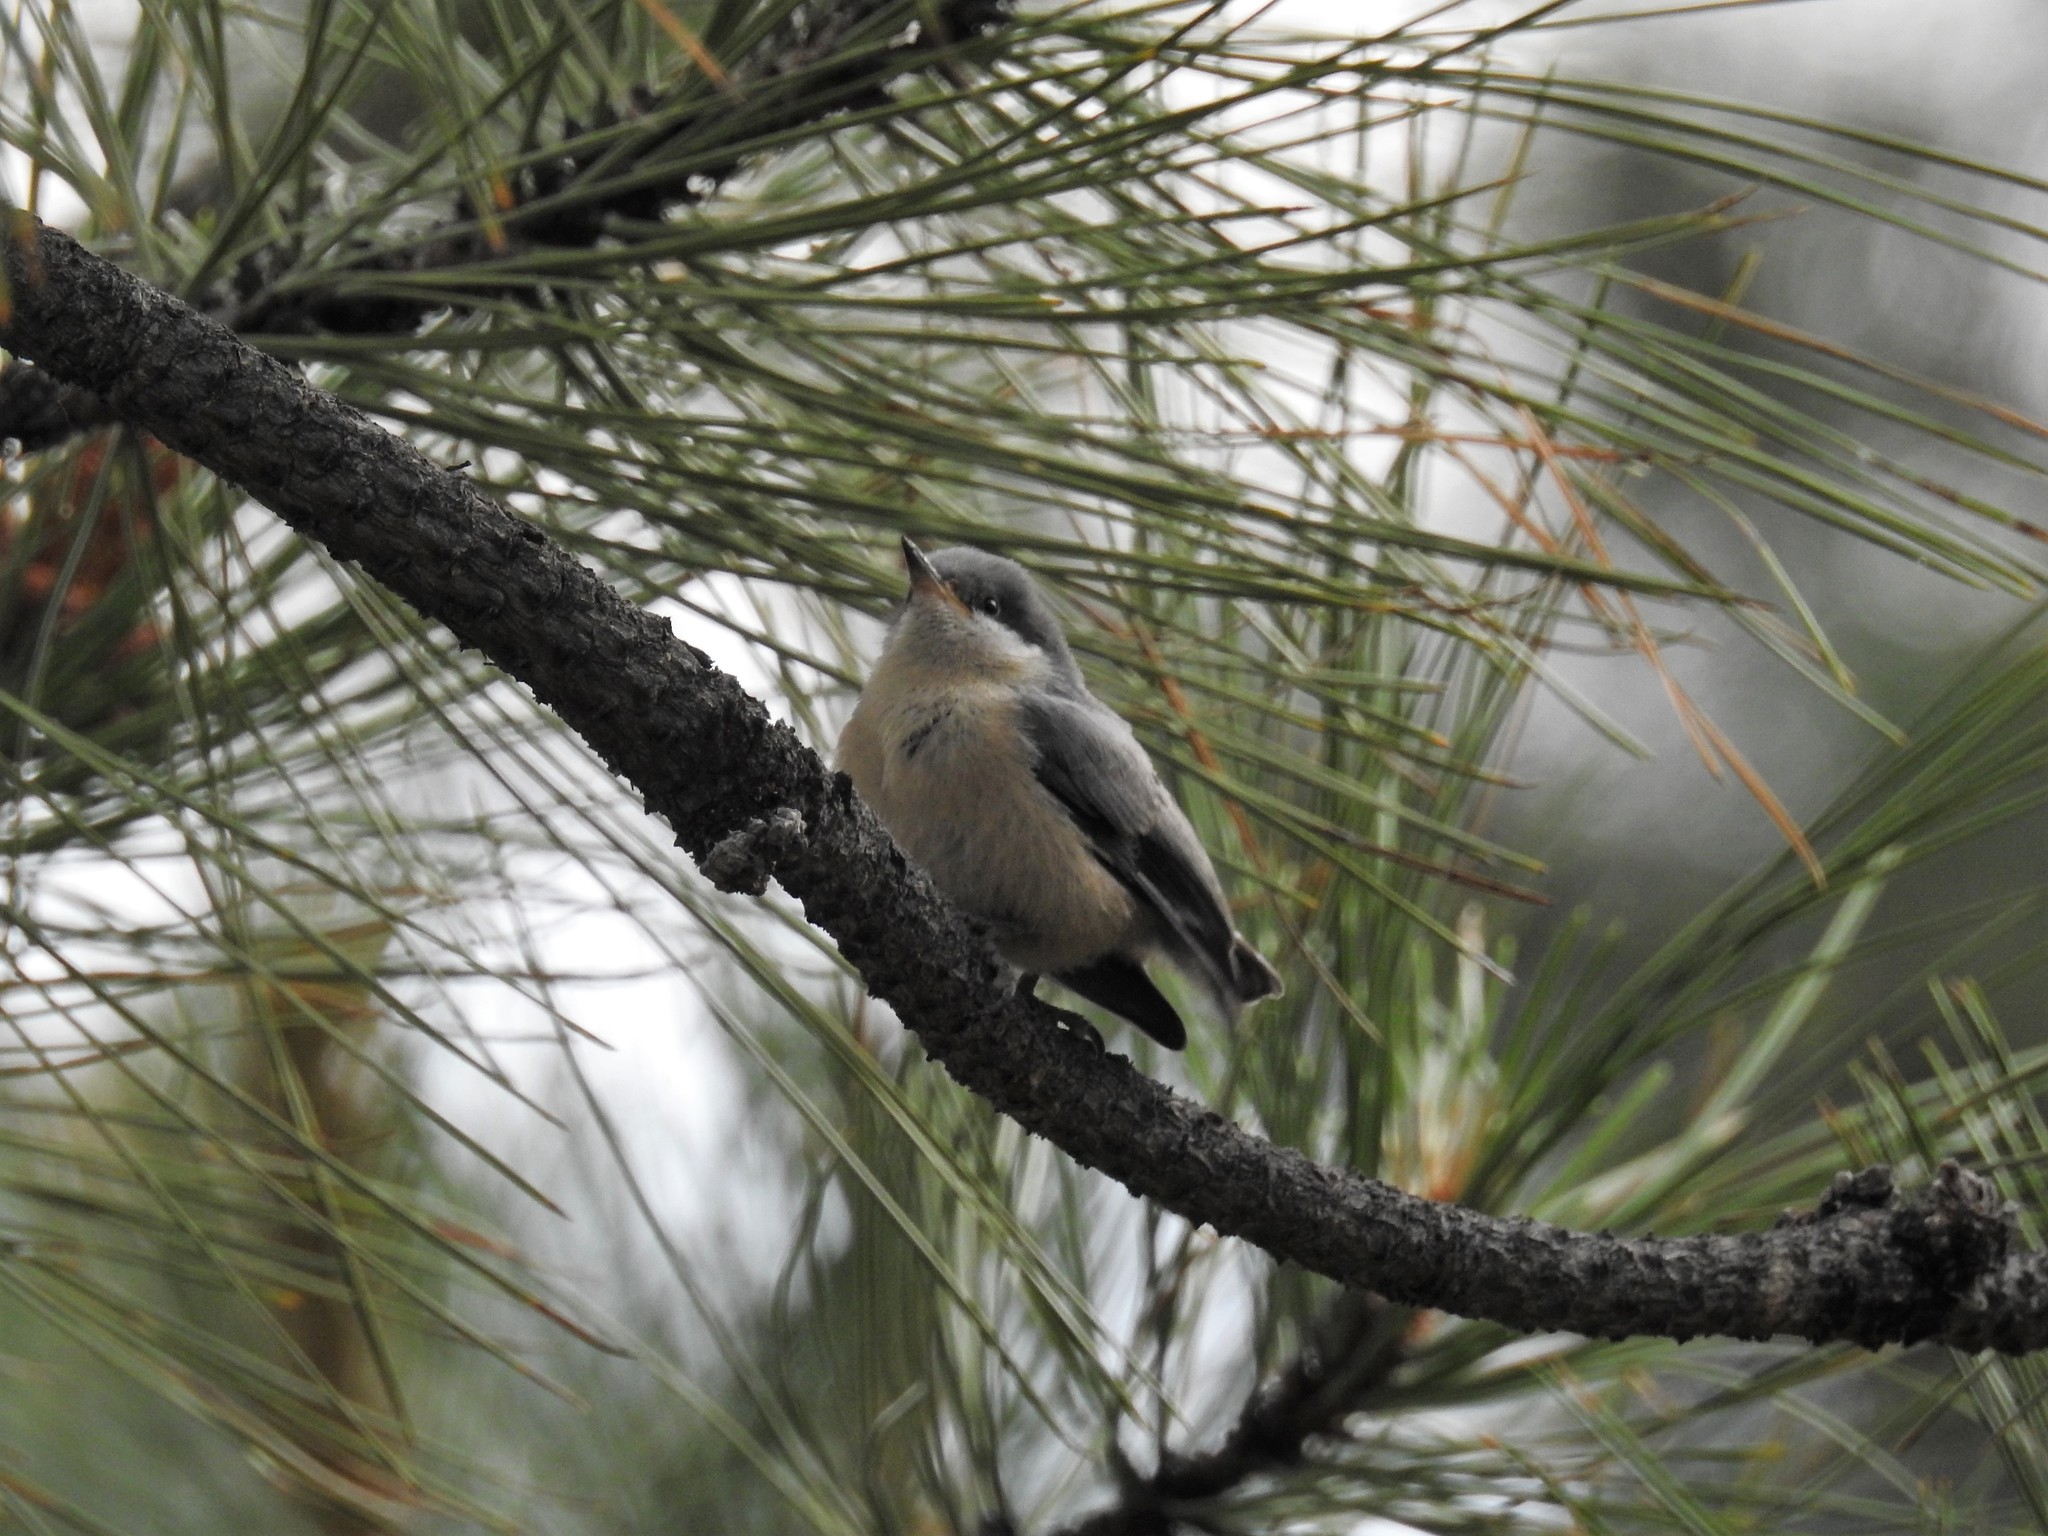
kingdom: Animalia
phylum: Chordata
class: Aves
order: Passeriformes
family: Sittidae
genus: Sitta
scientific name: Sitta pygmaea
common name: Pygmy nuthatch
